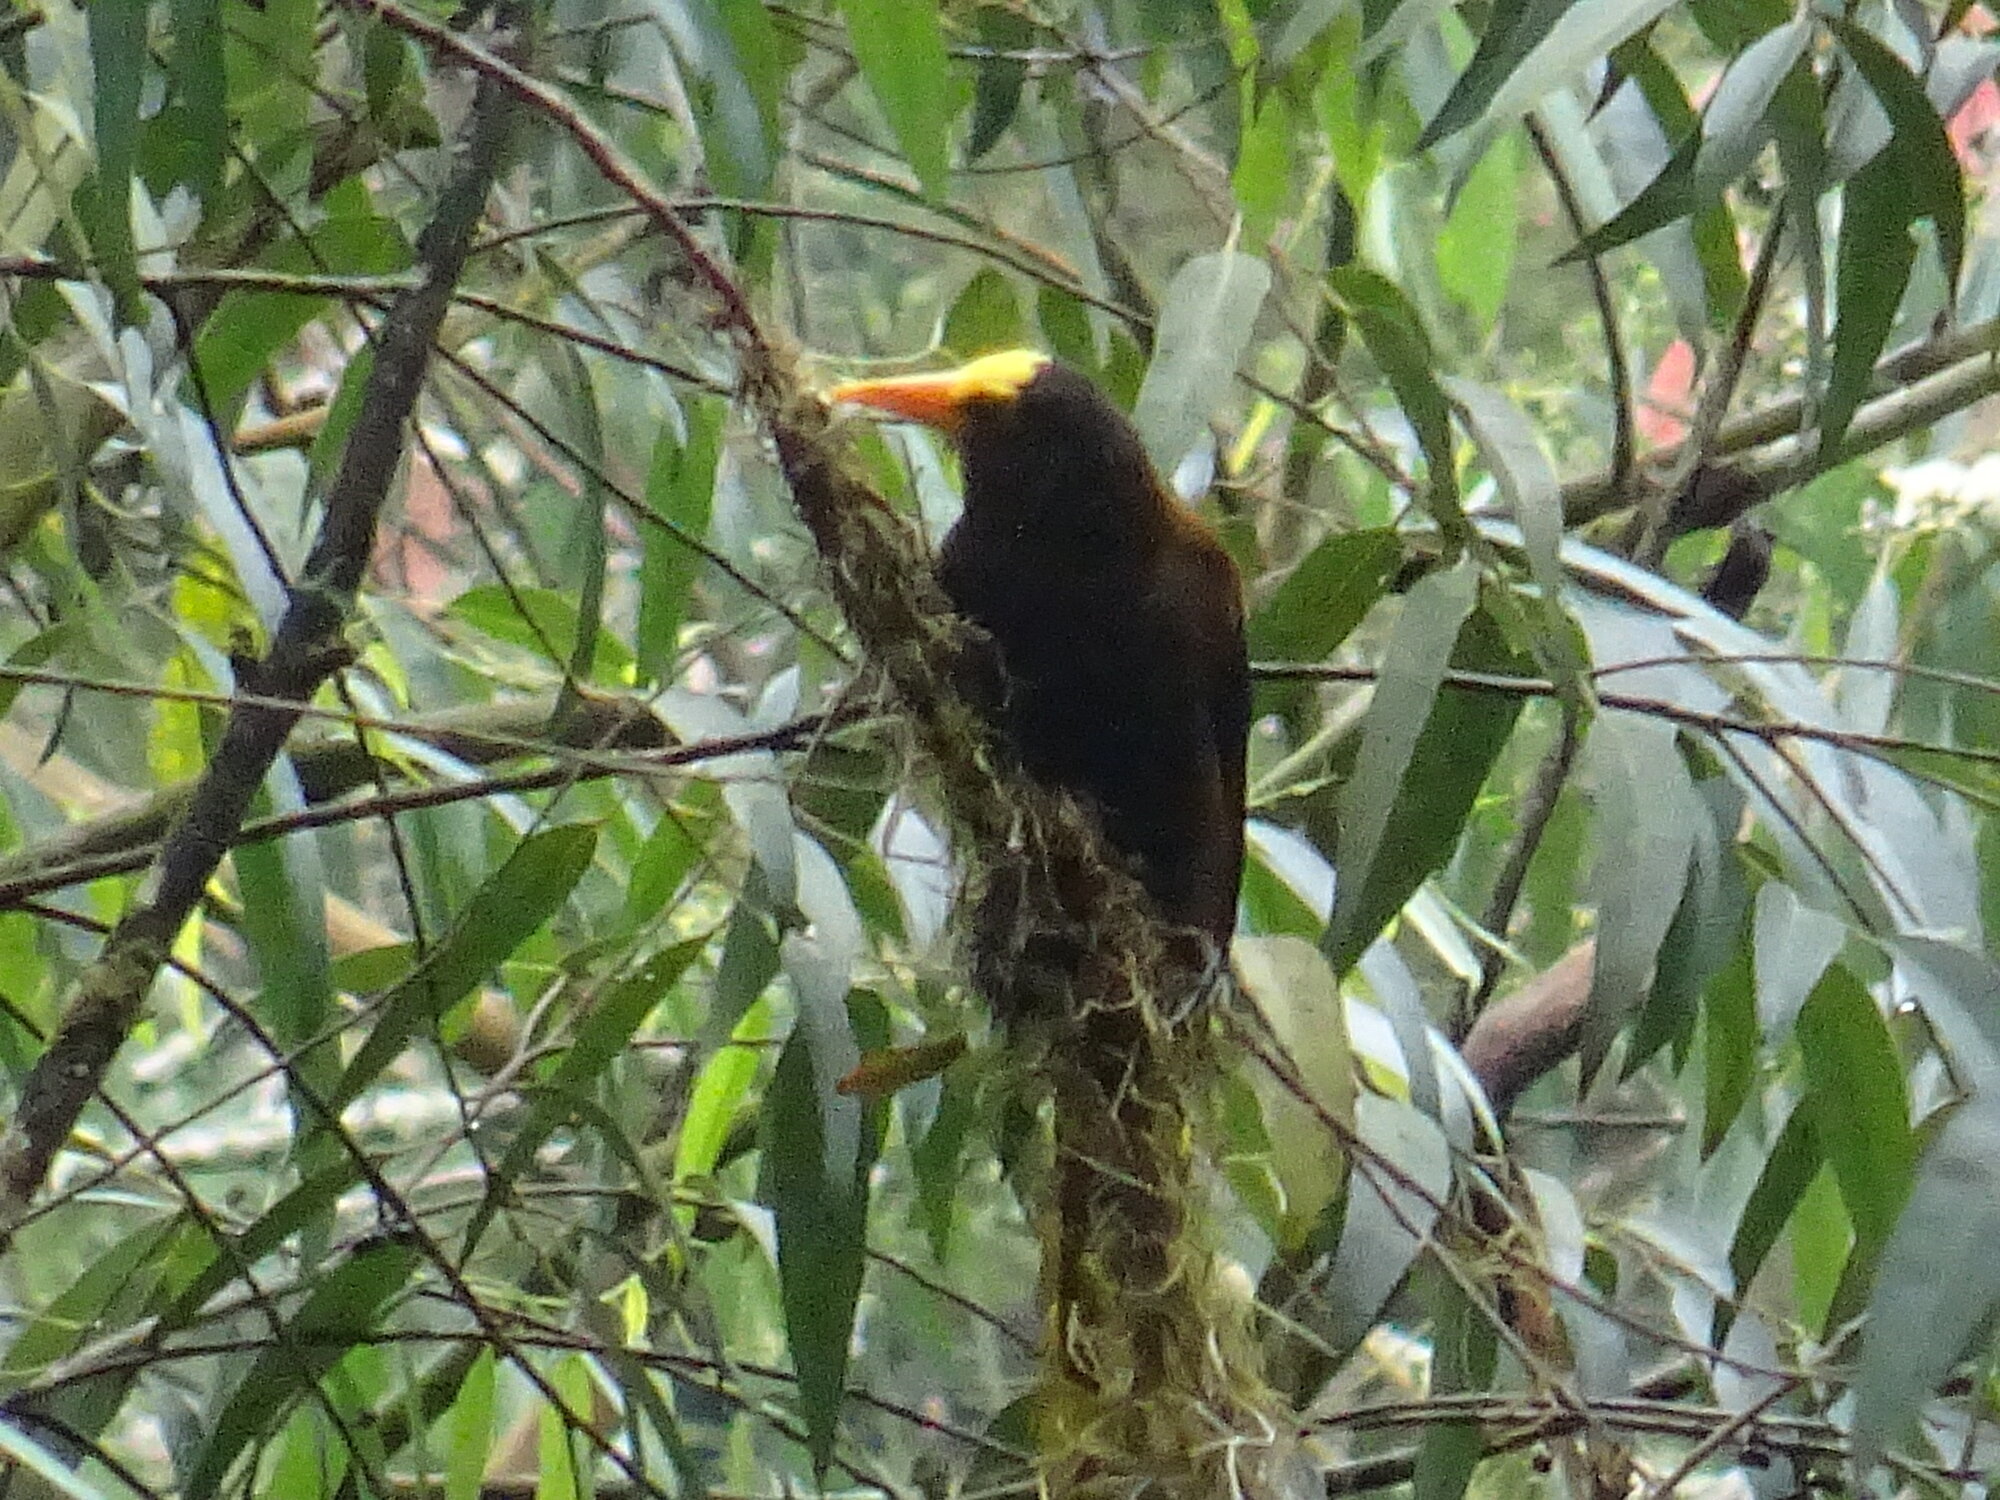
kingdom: Animalia
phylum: Chordata
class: Aves
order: Passeriformes
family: Icteridae
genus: Psarocolius
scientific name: Psarocolius angustifrons
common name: Russet-backed oropendola
